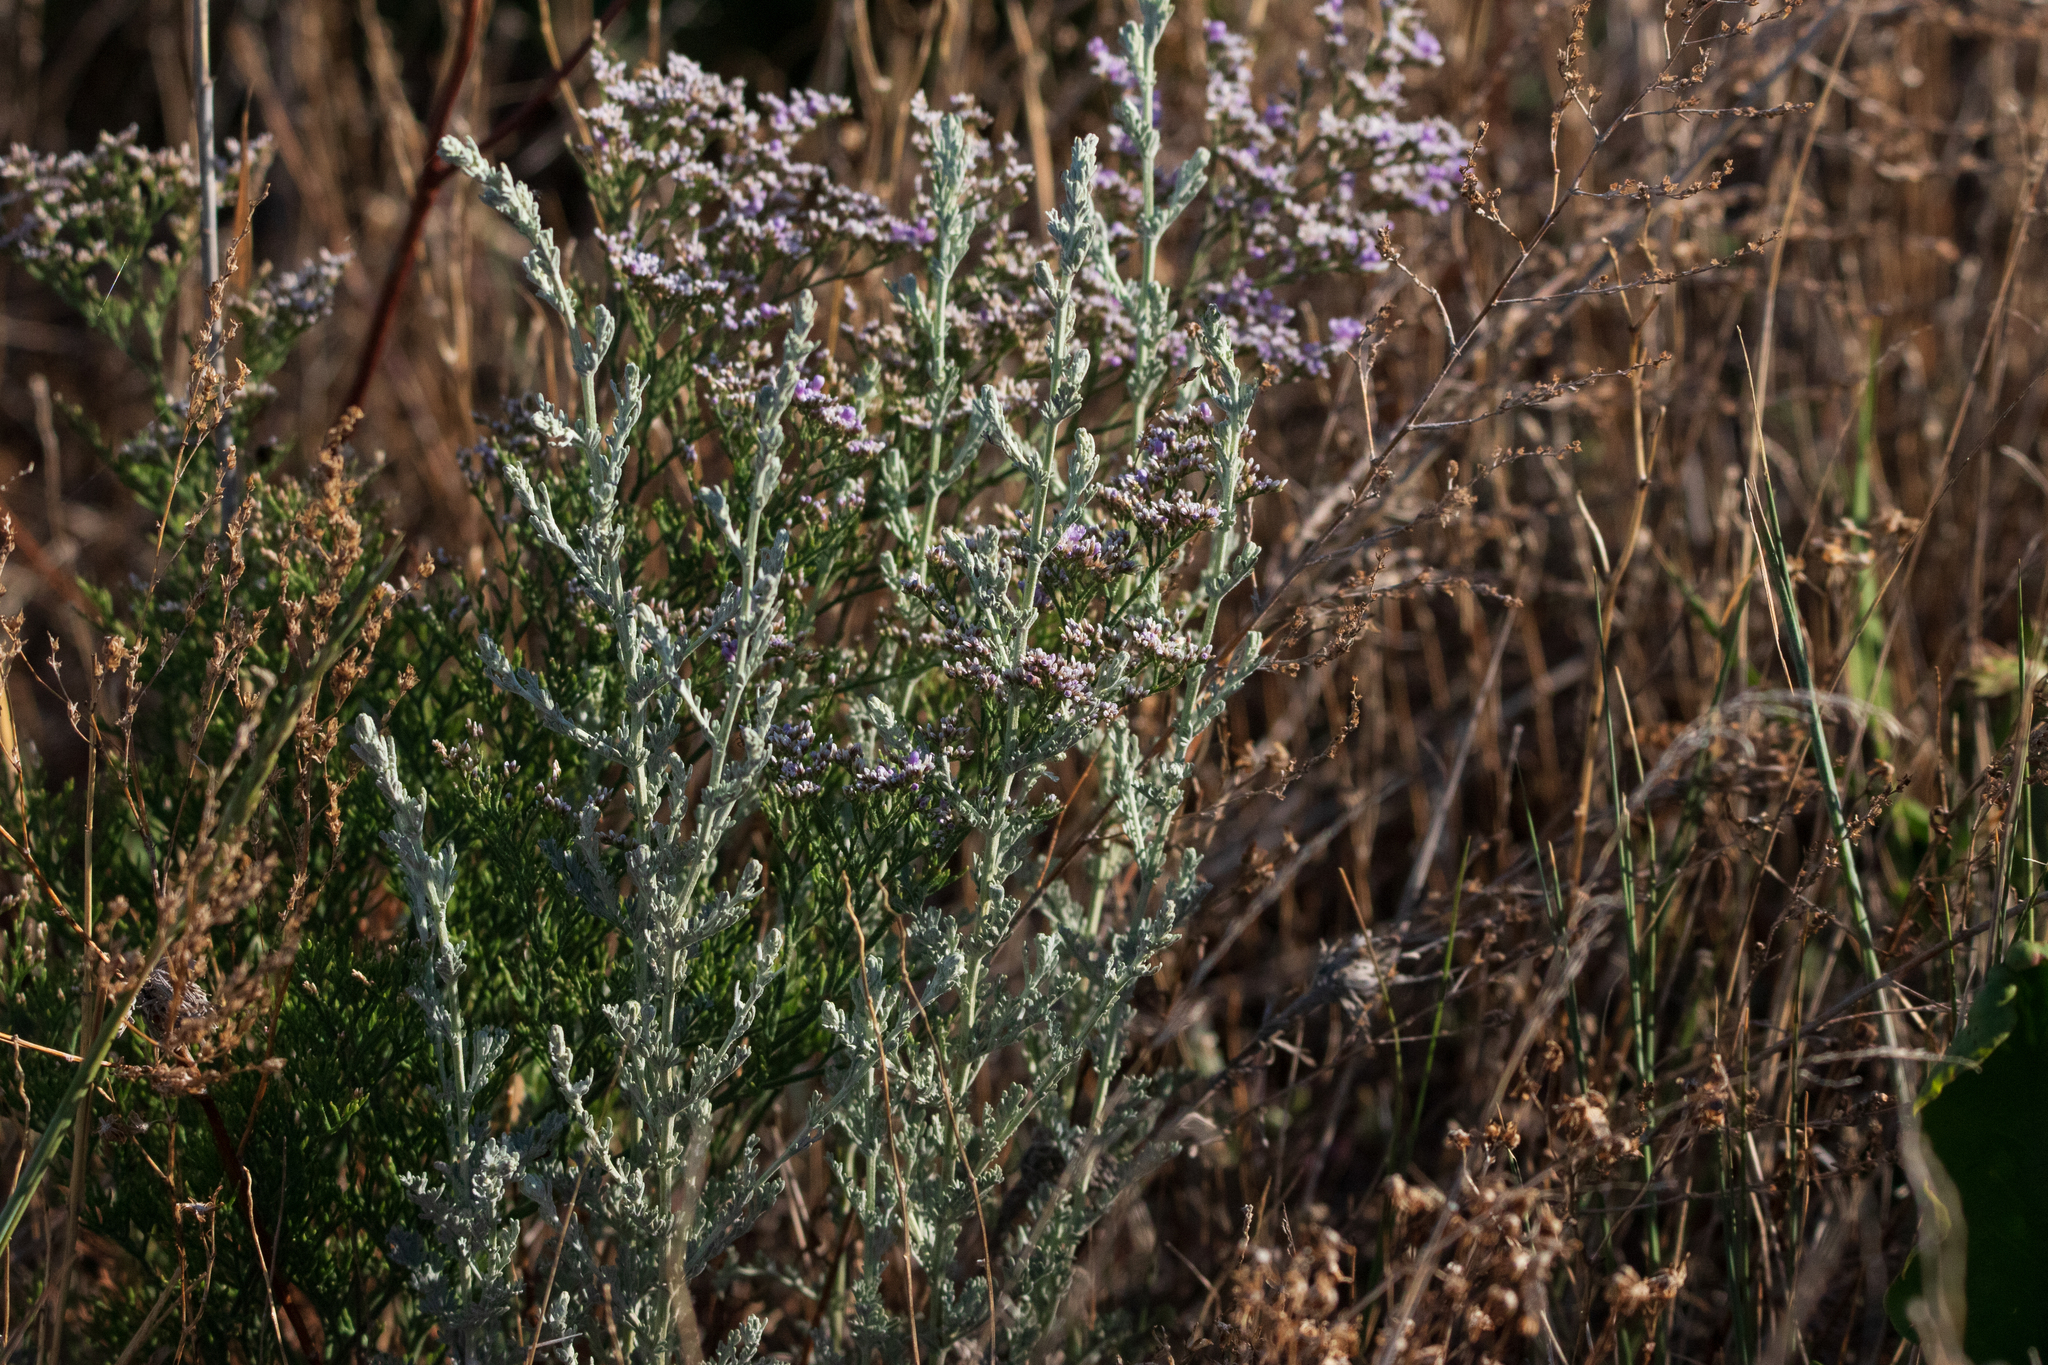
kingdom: Plantae
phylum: Tracheophyta
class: Magnoliopsida
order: Asterales
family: Asteraceae
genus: Artemisia
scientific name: Artemisia nitrosa
